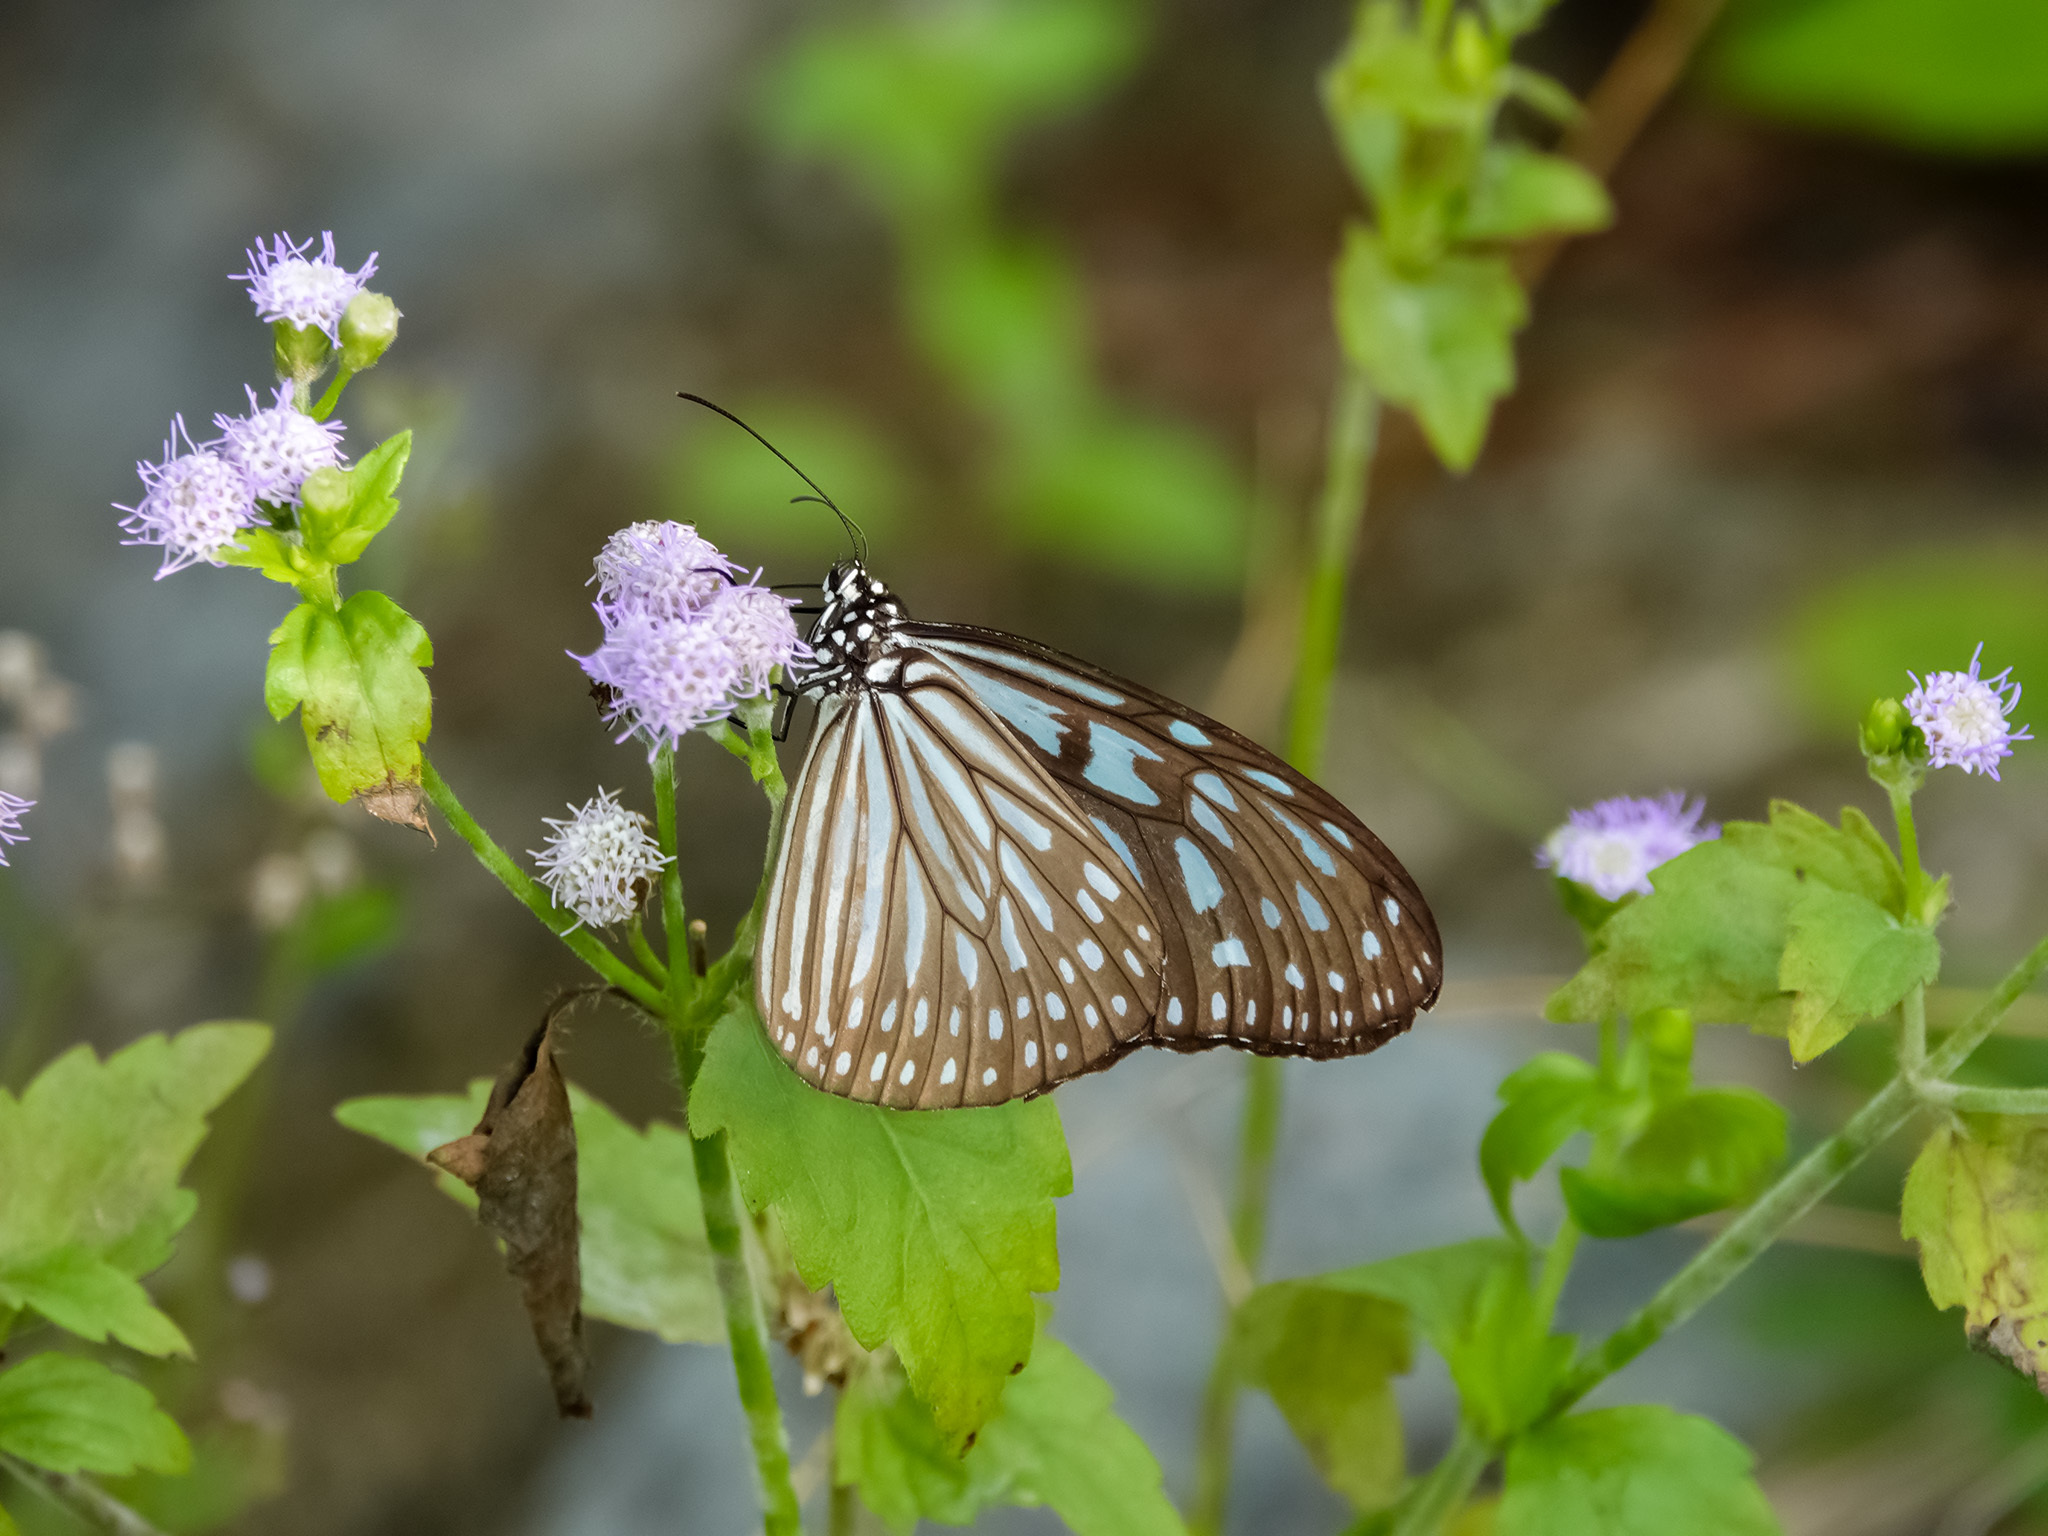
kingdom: Animalia
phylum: Arthropoda
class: Insecta
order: Lepidoptera
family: Nymphalidae
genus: Ideopsis
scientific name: Ideopsis vulgaris
